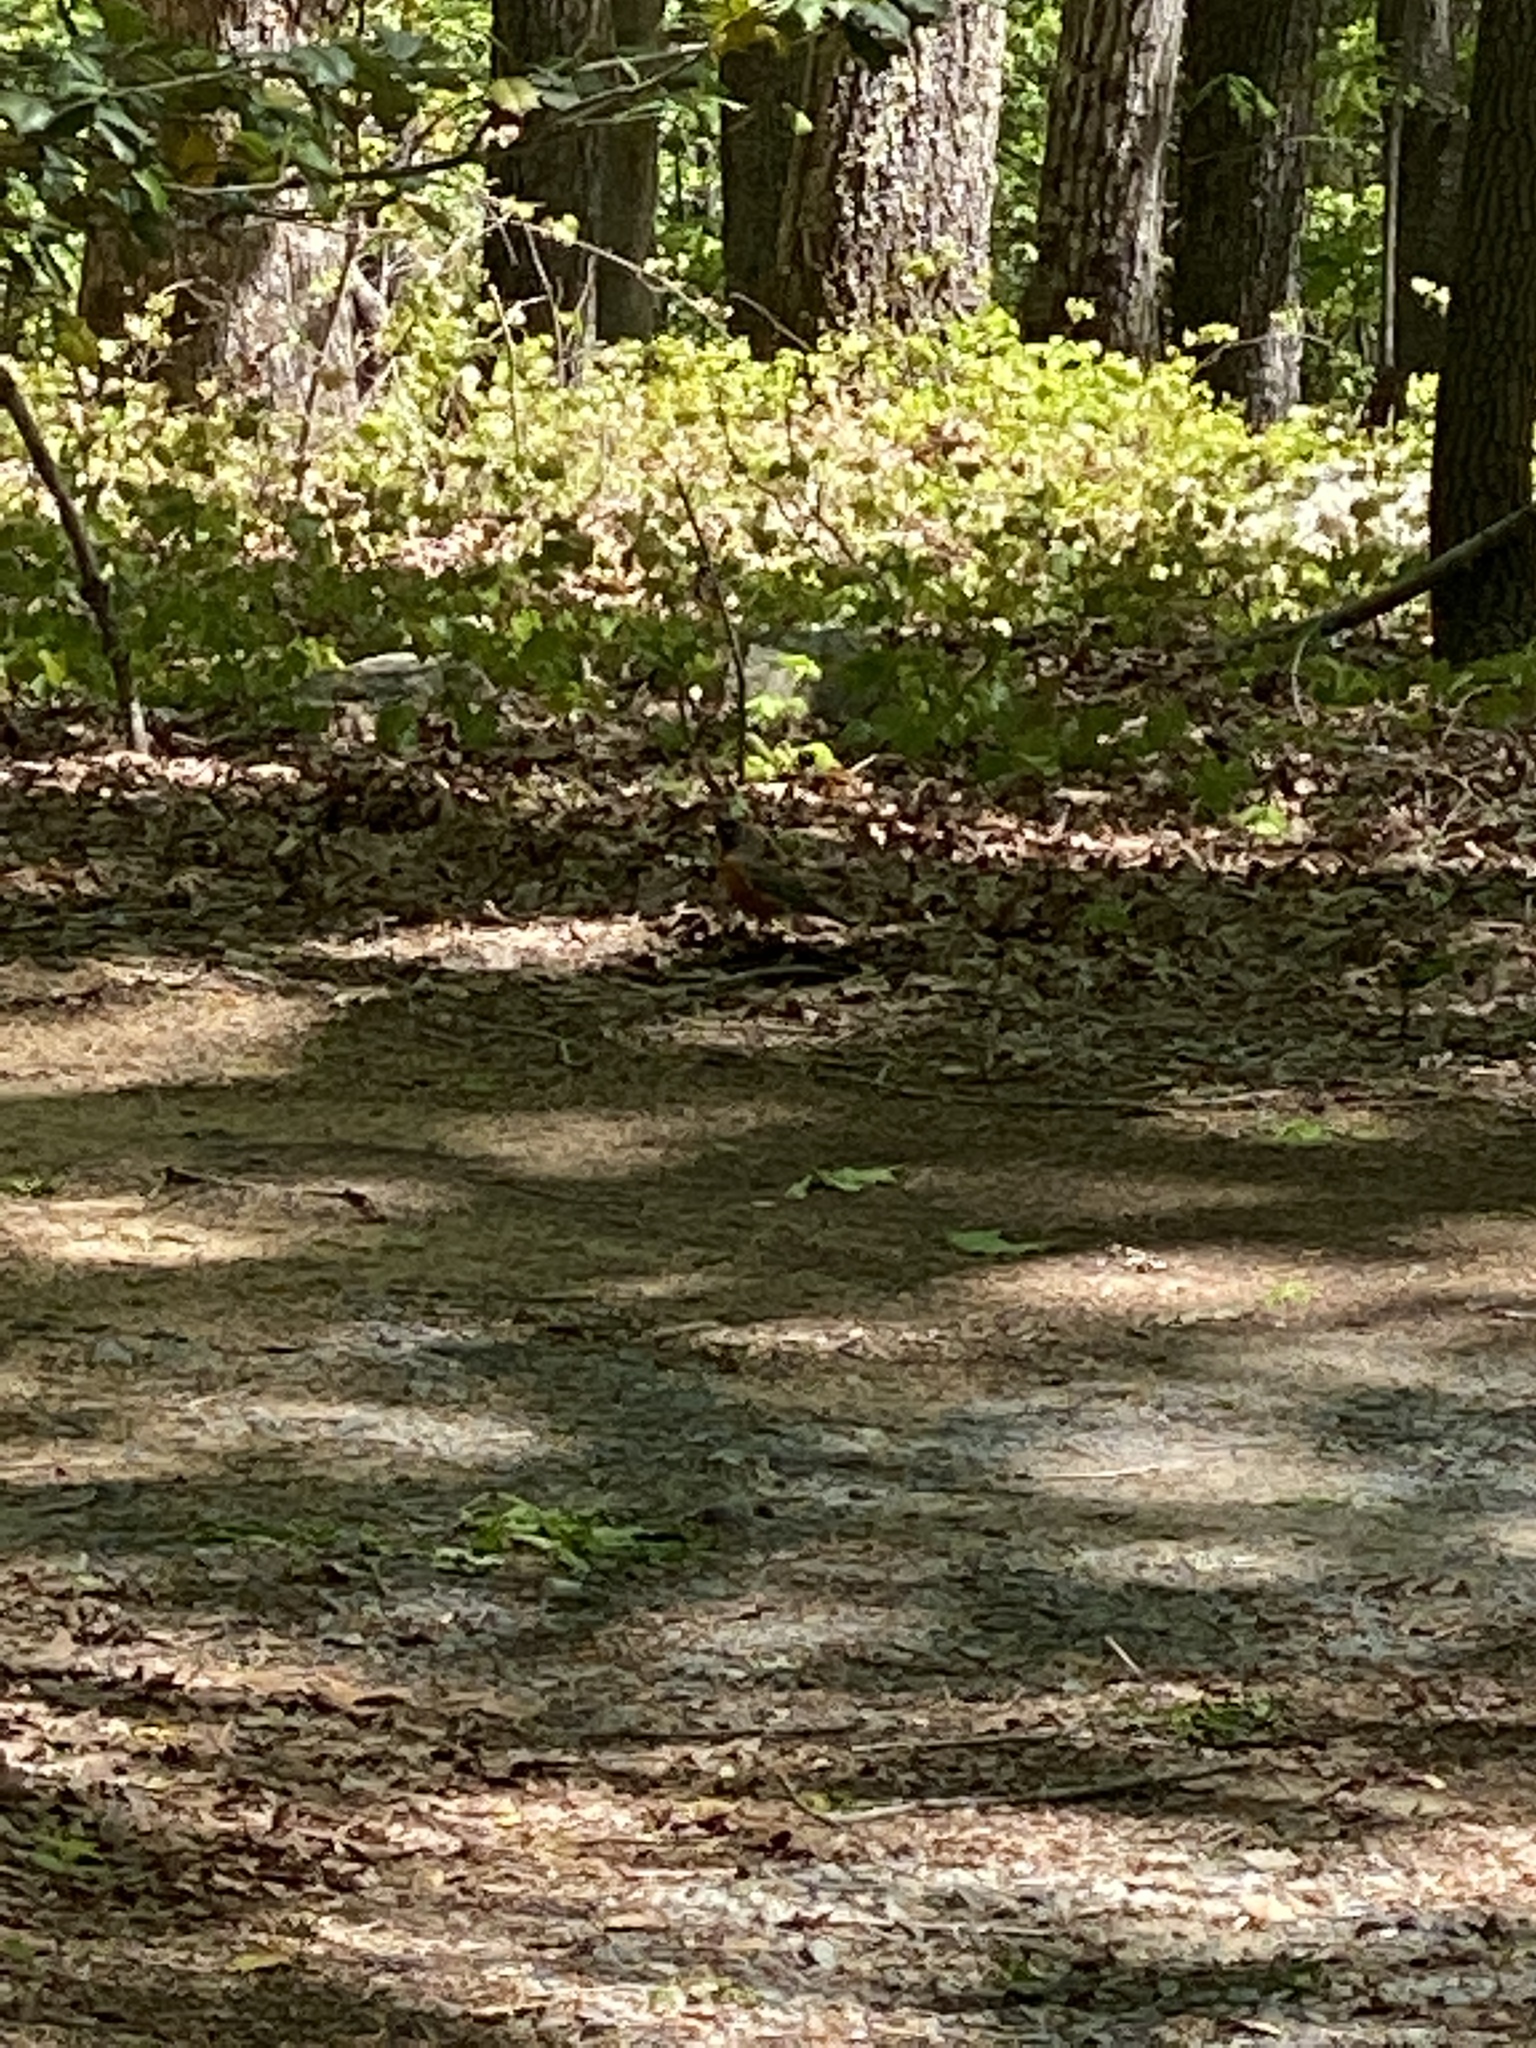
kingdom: Animalia
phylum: Chordata
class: Aves
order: Passeriformes
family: Turdidae
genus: Turdus
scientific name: Turdus migratorius
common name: American robin
